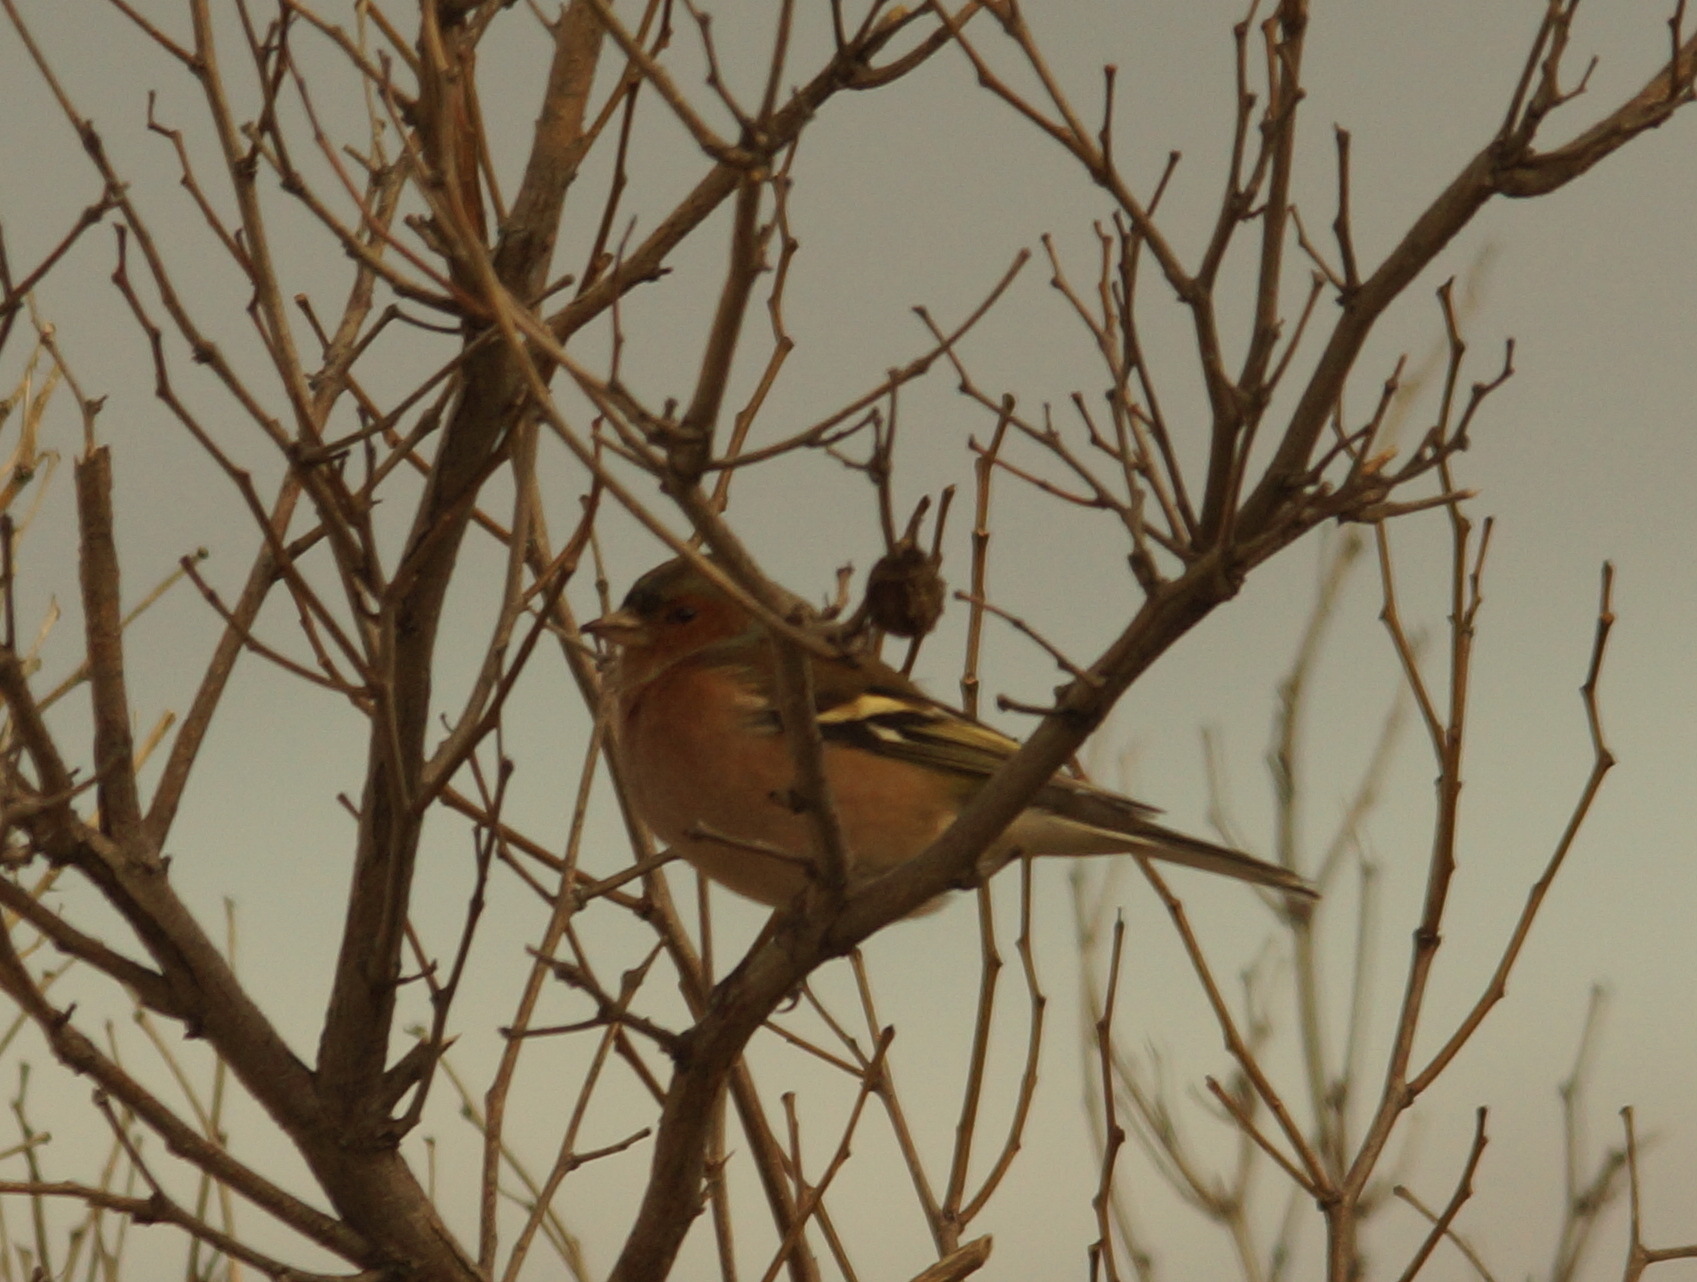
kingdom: Animalia
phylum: Chordata
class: Aves
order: Passeriformes
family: Fringillidae
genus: Fringilla
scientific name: Fringilla coelebs
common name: Common chaffinch
